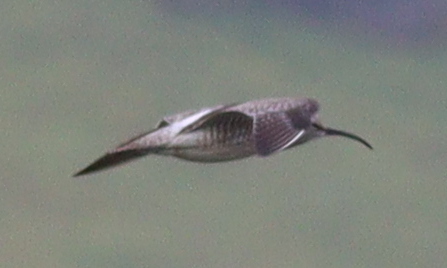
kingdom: Animalia
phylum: Chordata
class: Aves
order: Charadriiformes
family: Scolopacidae
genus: Numenius
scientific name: Numenius phaeopus
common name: Whimbrel
